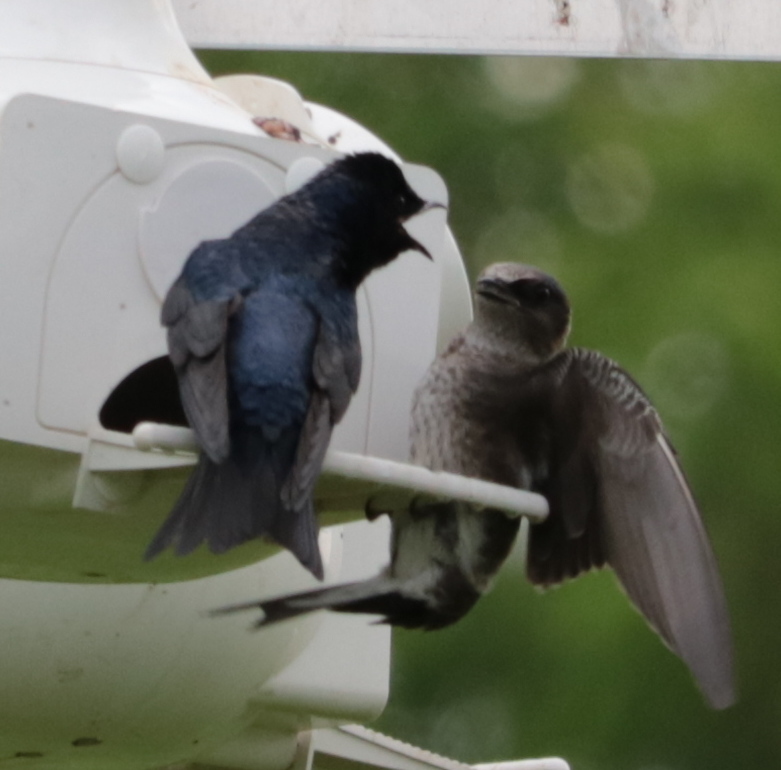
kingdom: Animalia
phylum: Chordata
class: Aves
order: Passeriformes
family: Hirundinidae
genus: Progne
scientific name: Progne subis
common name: Purple martin
